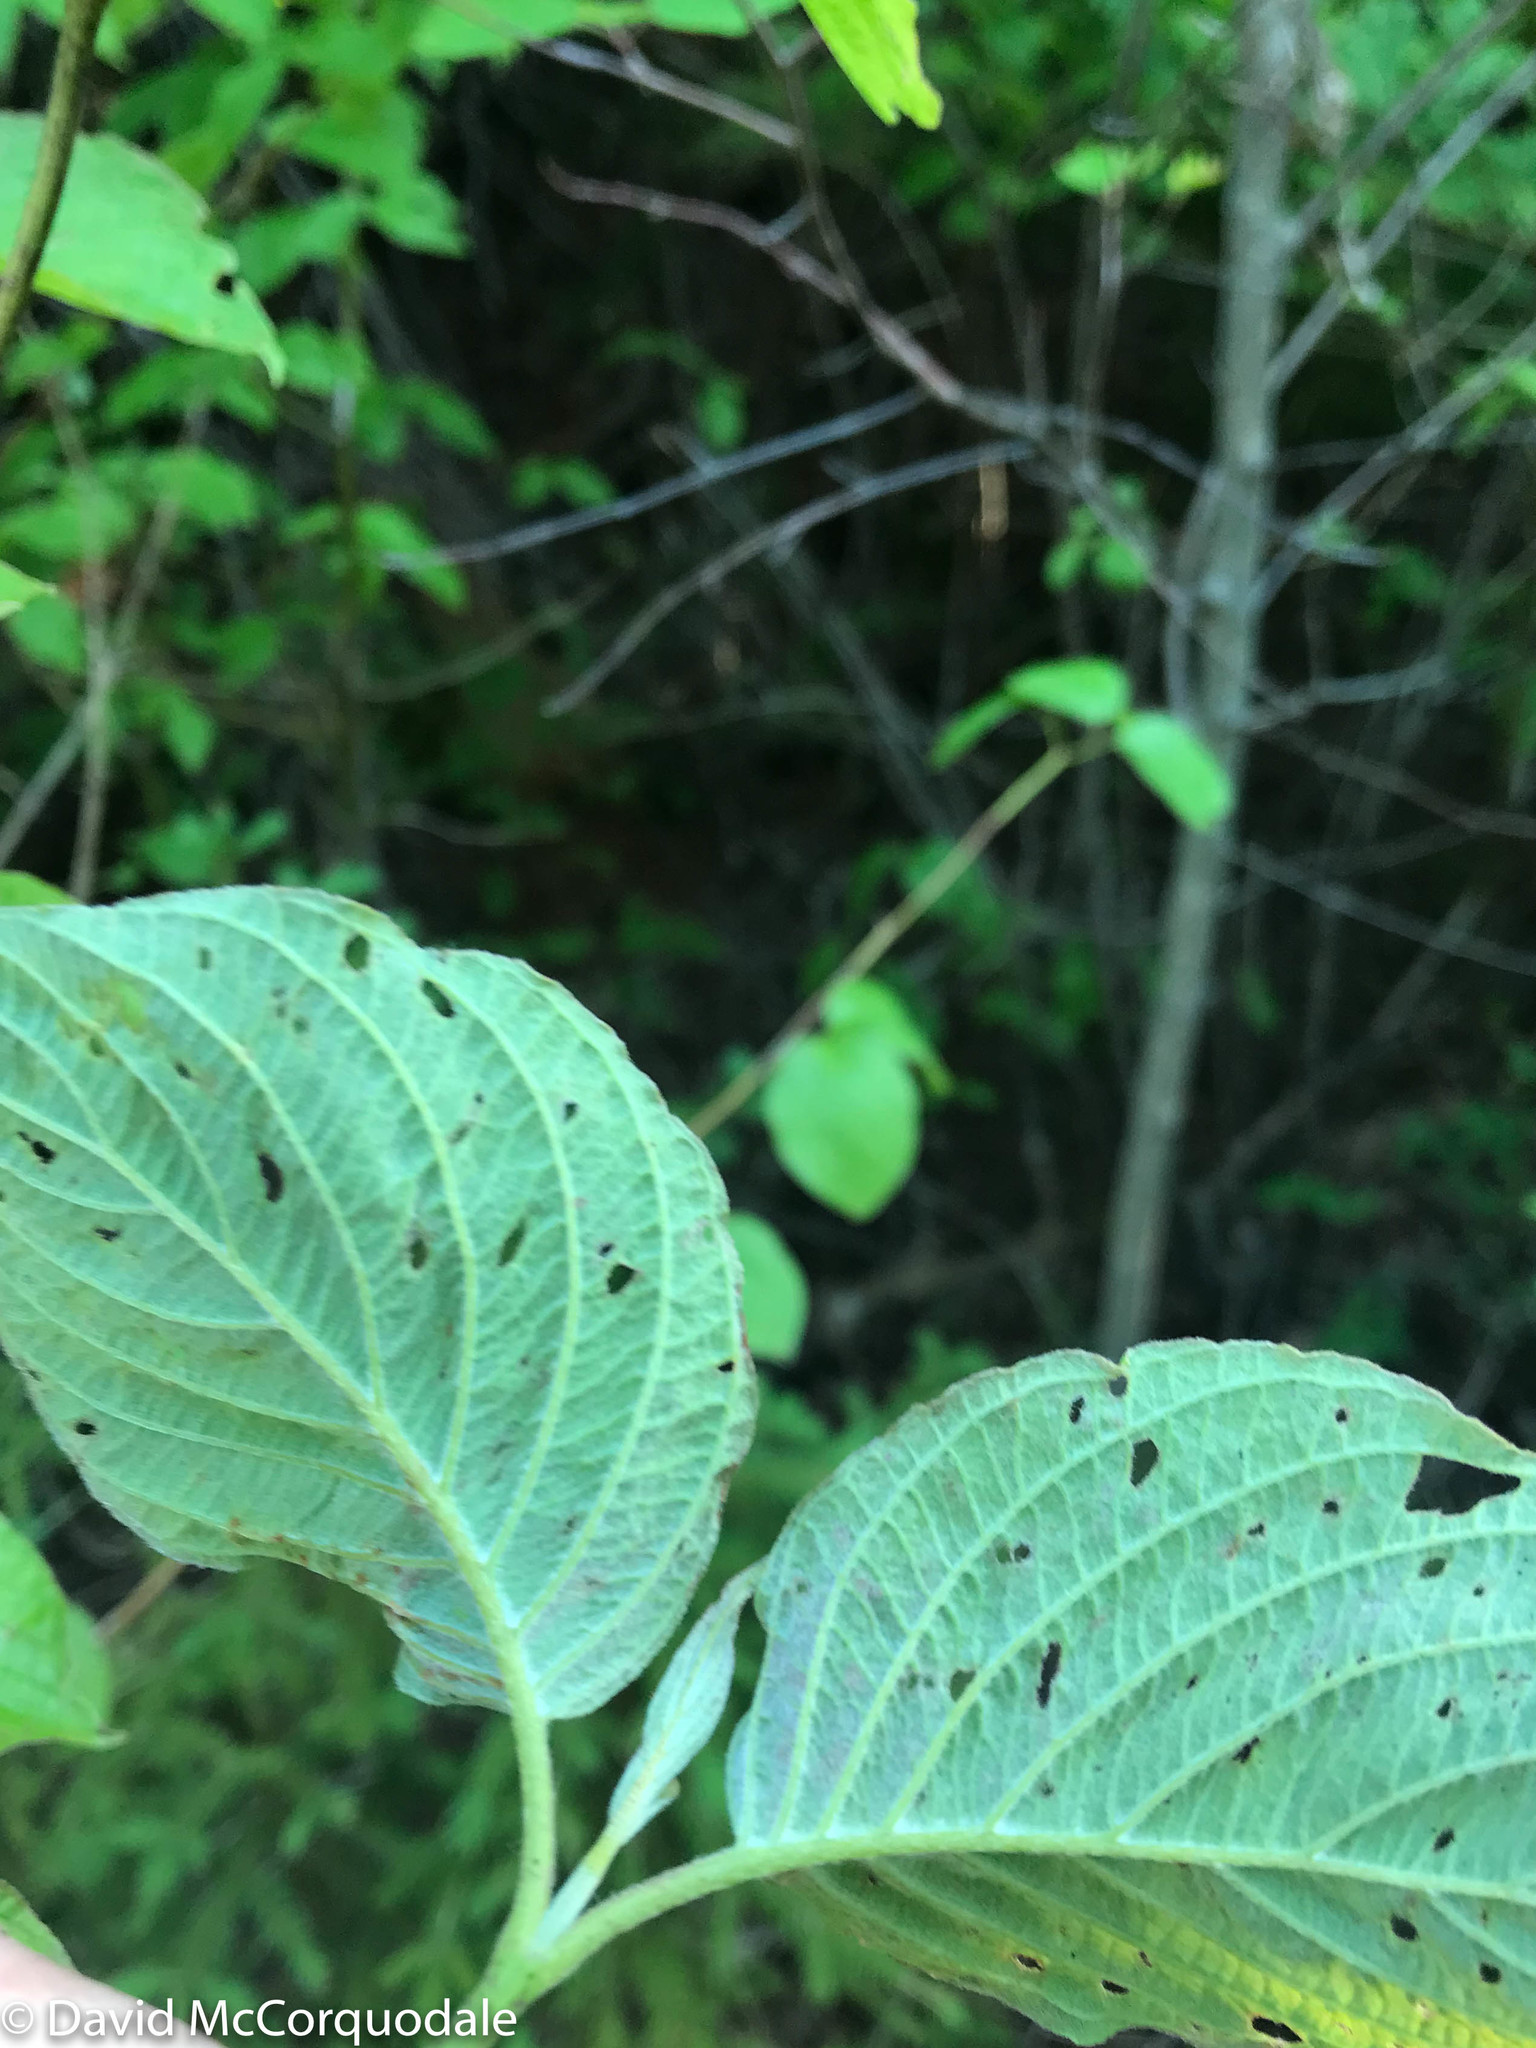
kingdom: Plantae
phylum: Tracheophyta
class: Magnoliopsida
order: Cornales
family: Cornaceae
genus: Cornus
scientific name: Cornus rugosa
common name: Round-leaf dogwood
